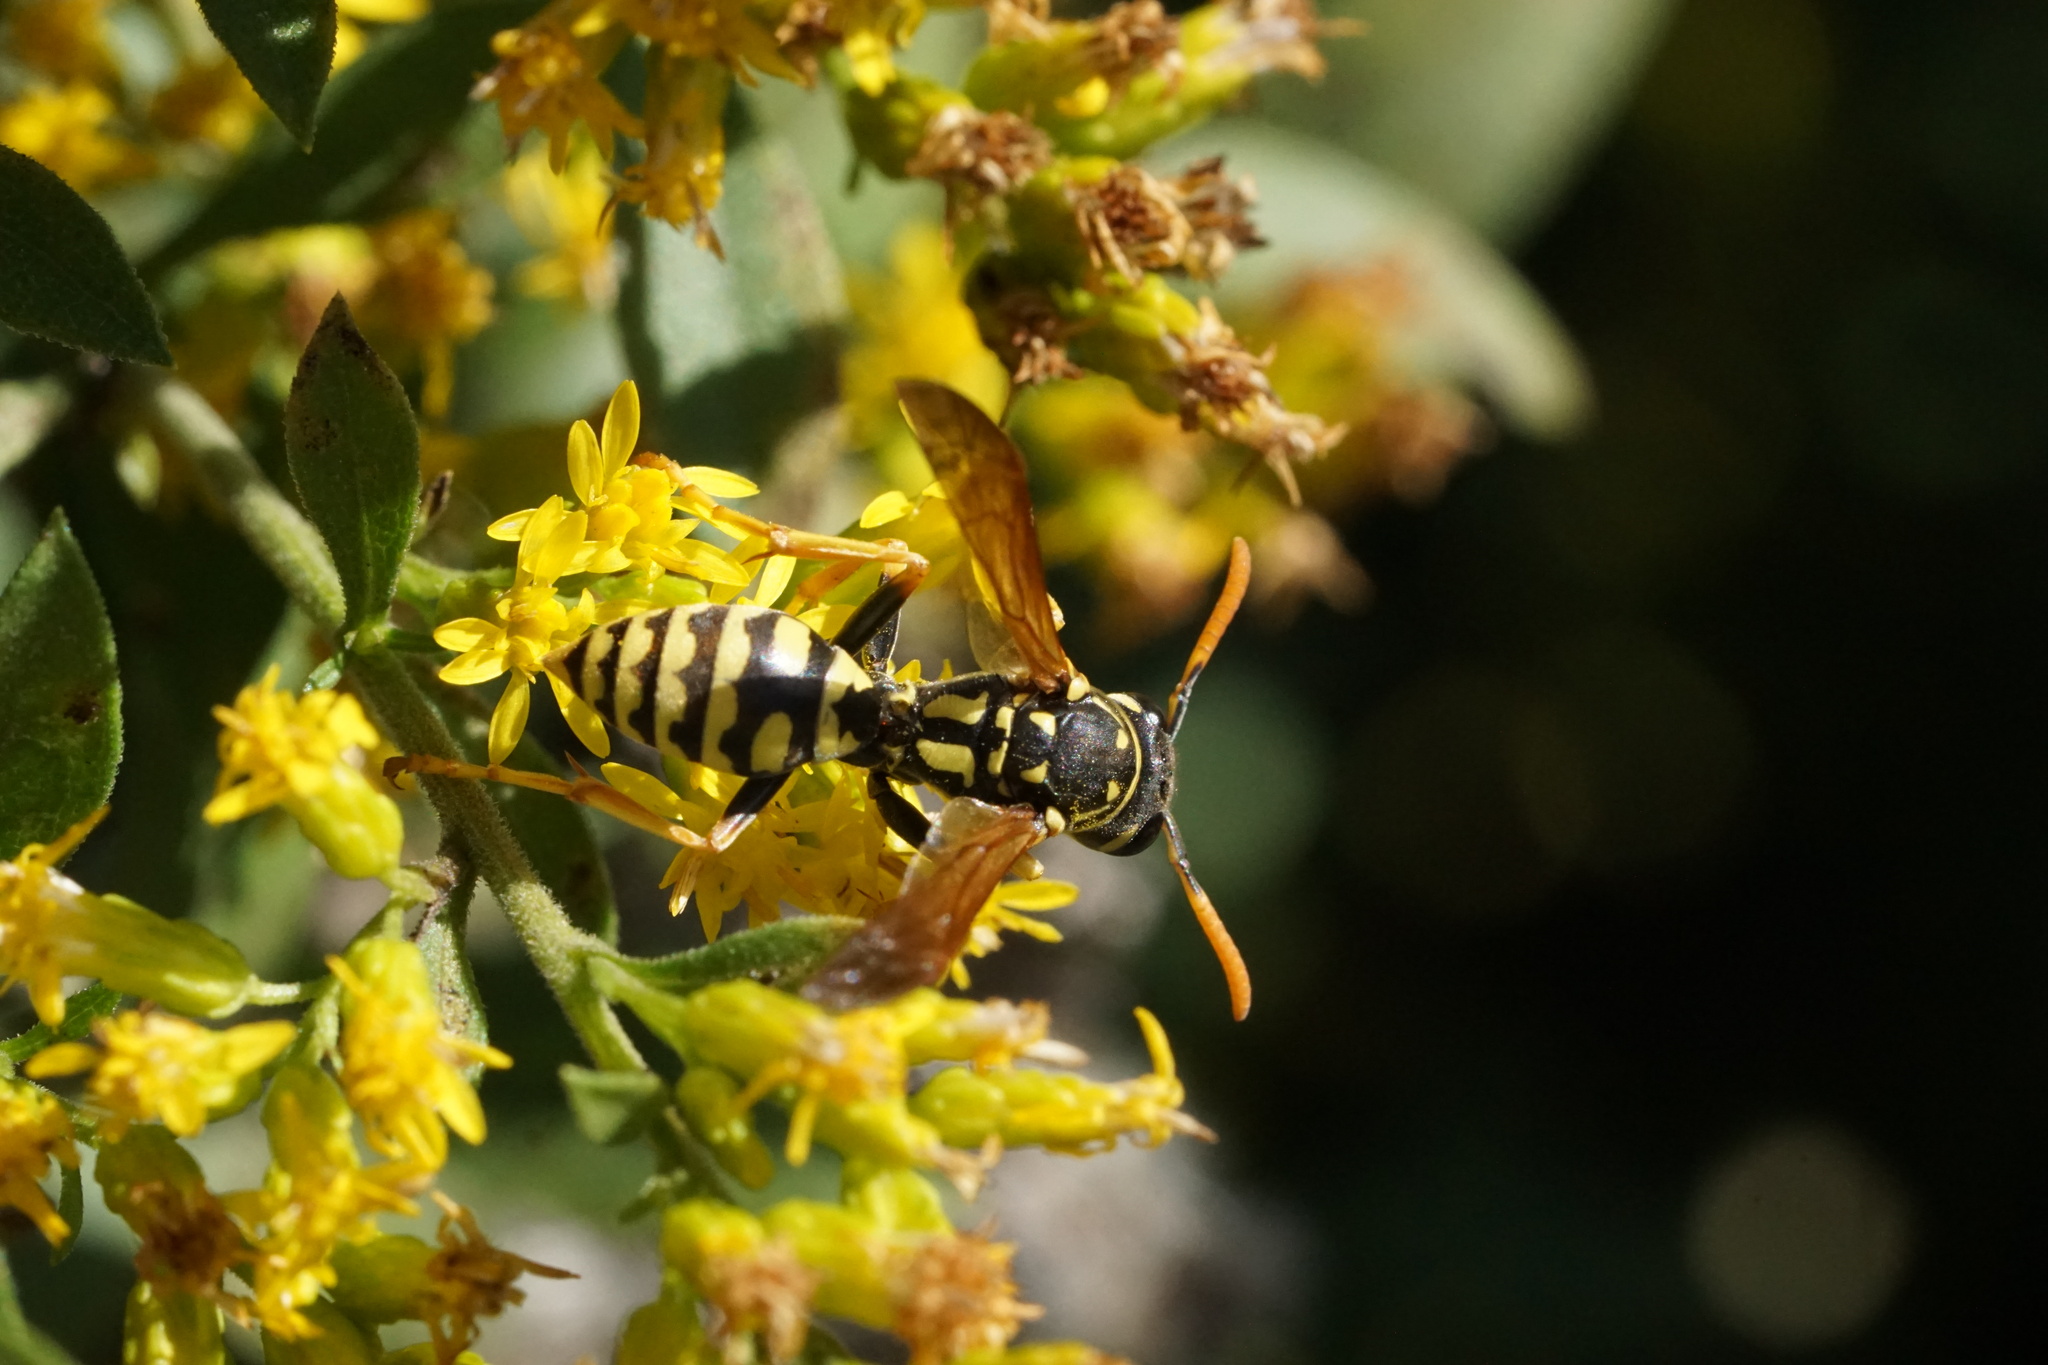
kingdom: Animalia
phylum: Arthropoda
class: Insecta
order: Hymenoptera
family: Eumenidae
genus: Polistes
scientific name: Polistes dominula
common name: Paper wasp
